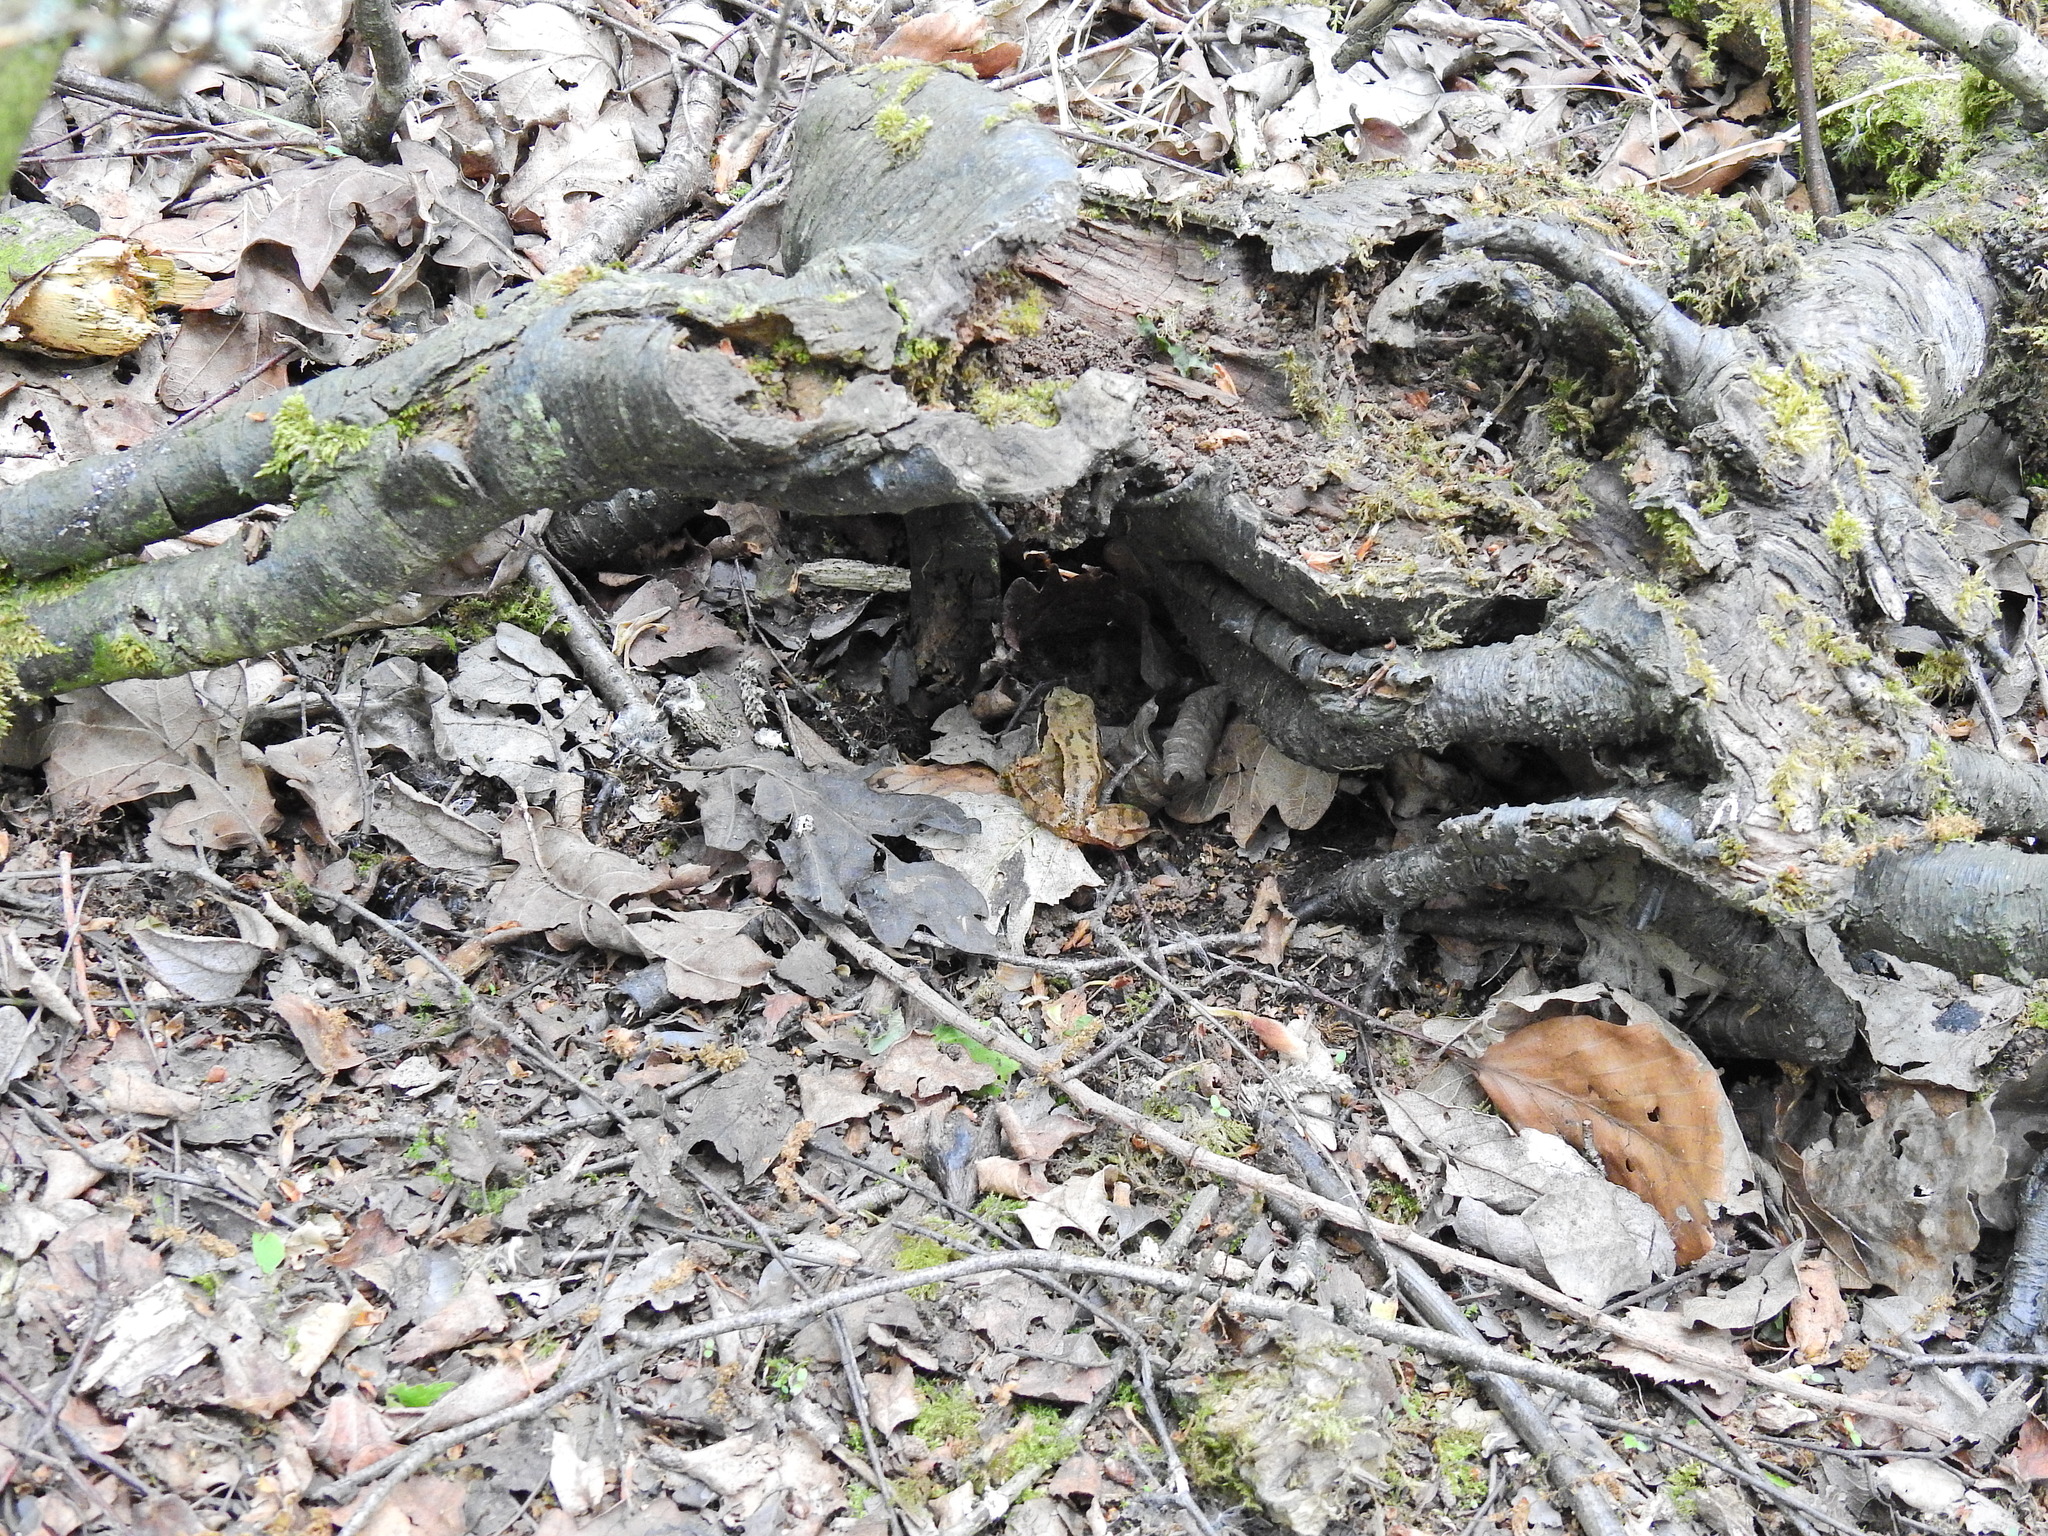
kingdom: Animalia
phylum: Chordata
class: Amphibia
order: Anura
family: Ranidae
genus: Rana
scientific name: Rana temporaria
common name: Common frog
